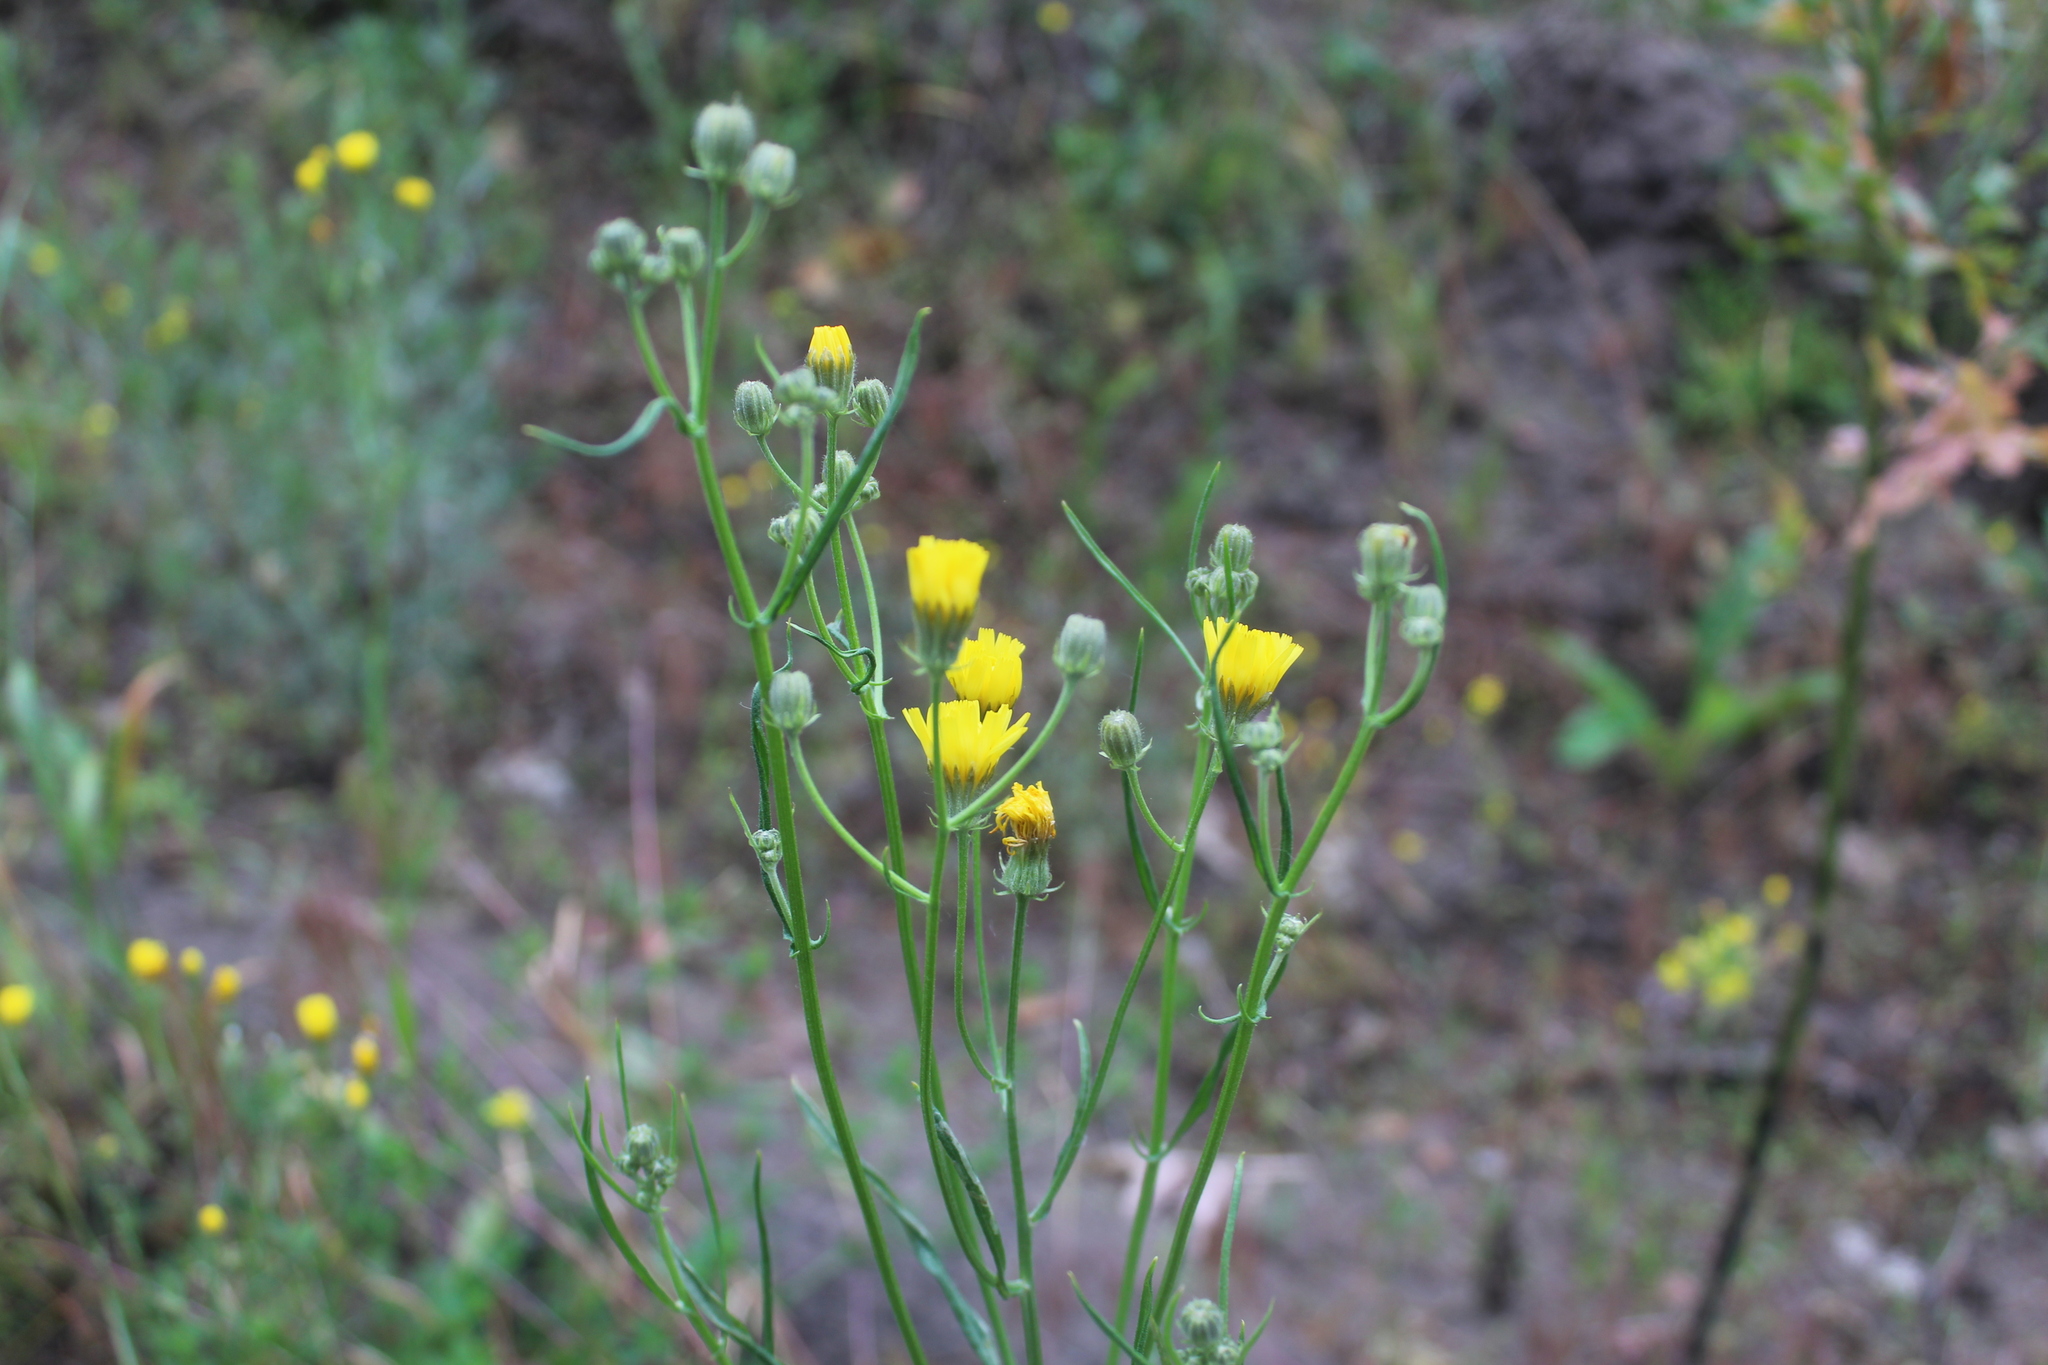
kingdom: Plantae
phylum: Tracheophyta
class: Magnoliopsida
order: Asterales
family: Asteraceae
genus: Crepis
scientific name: Crepis tectorum
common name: Narrow-leaved hawk's-beard
